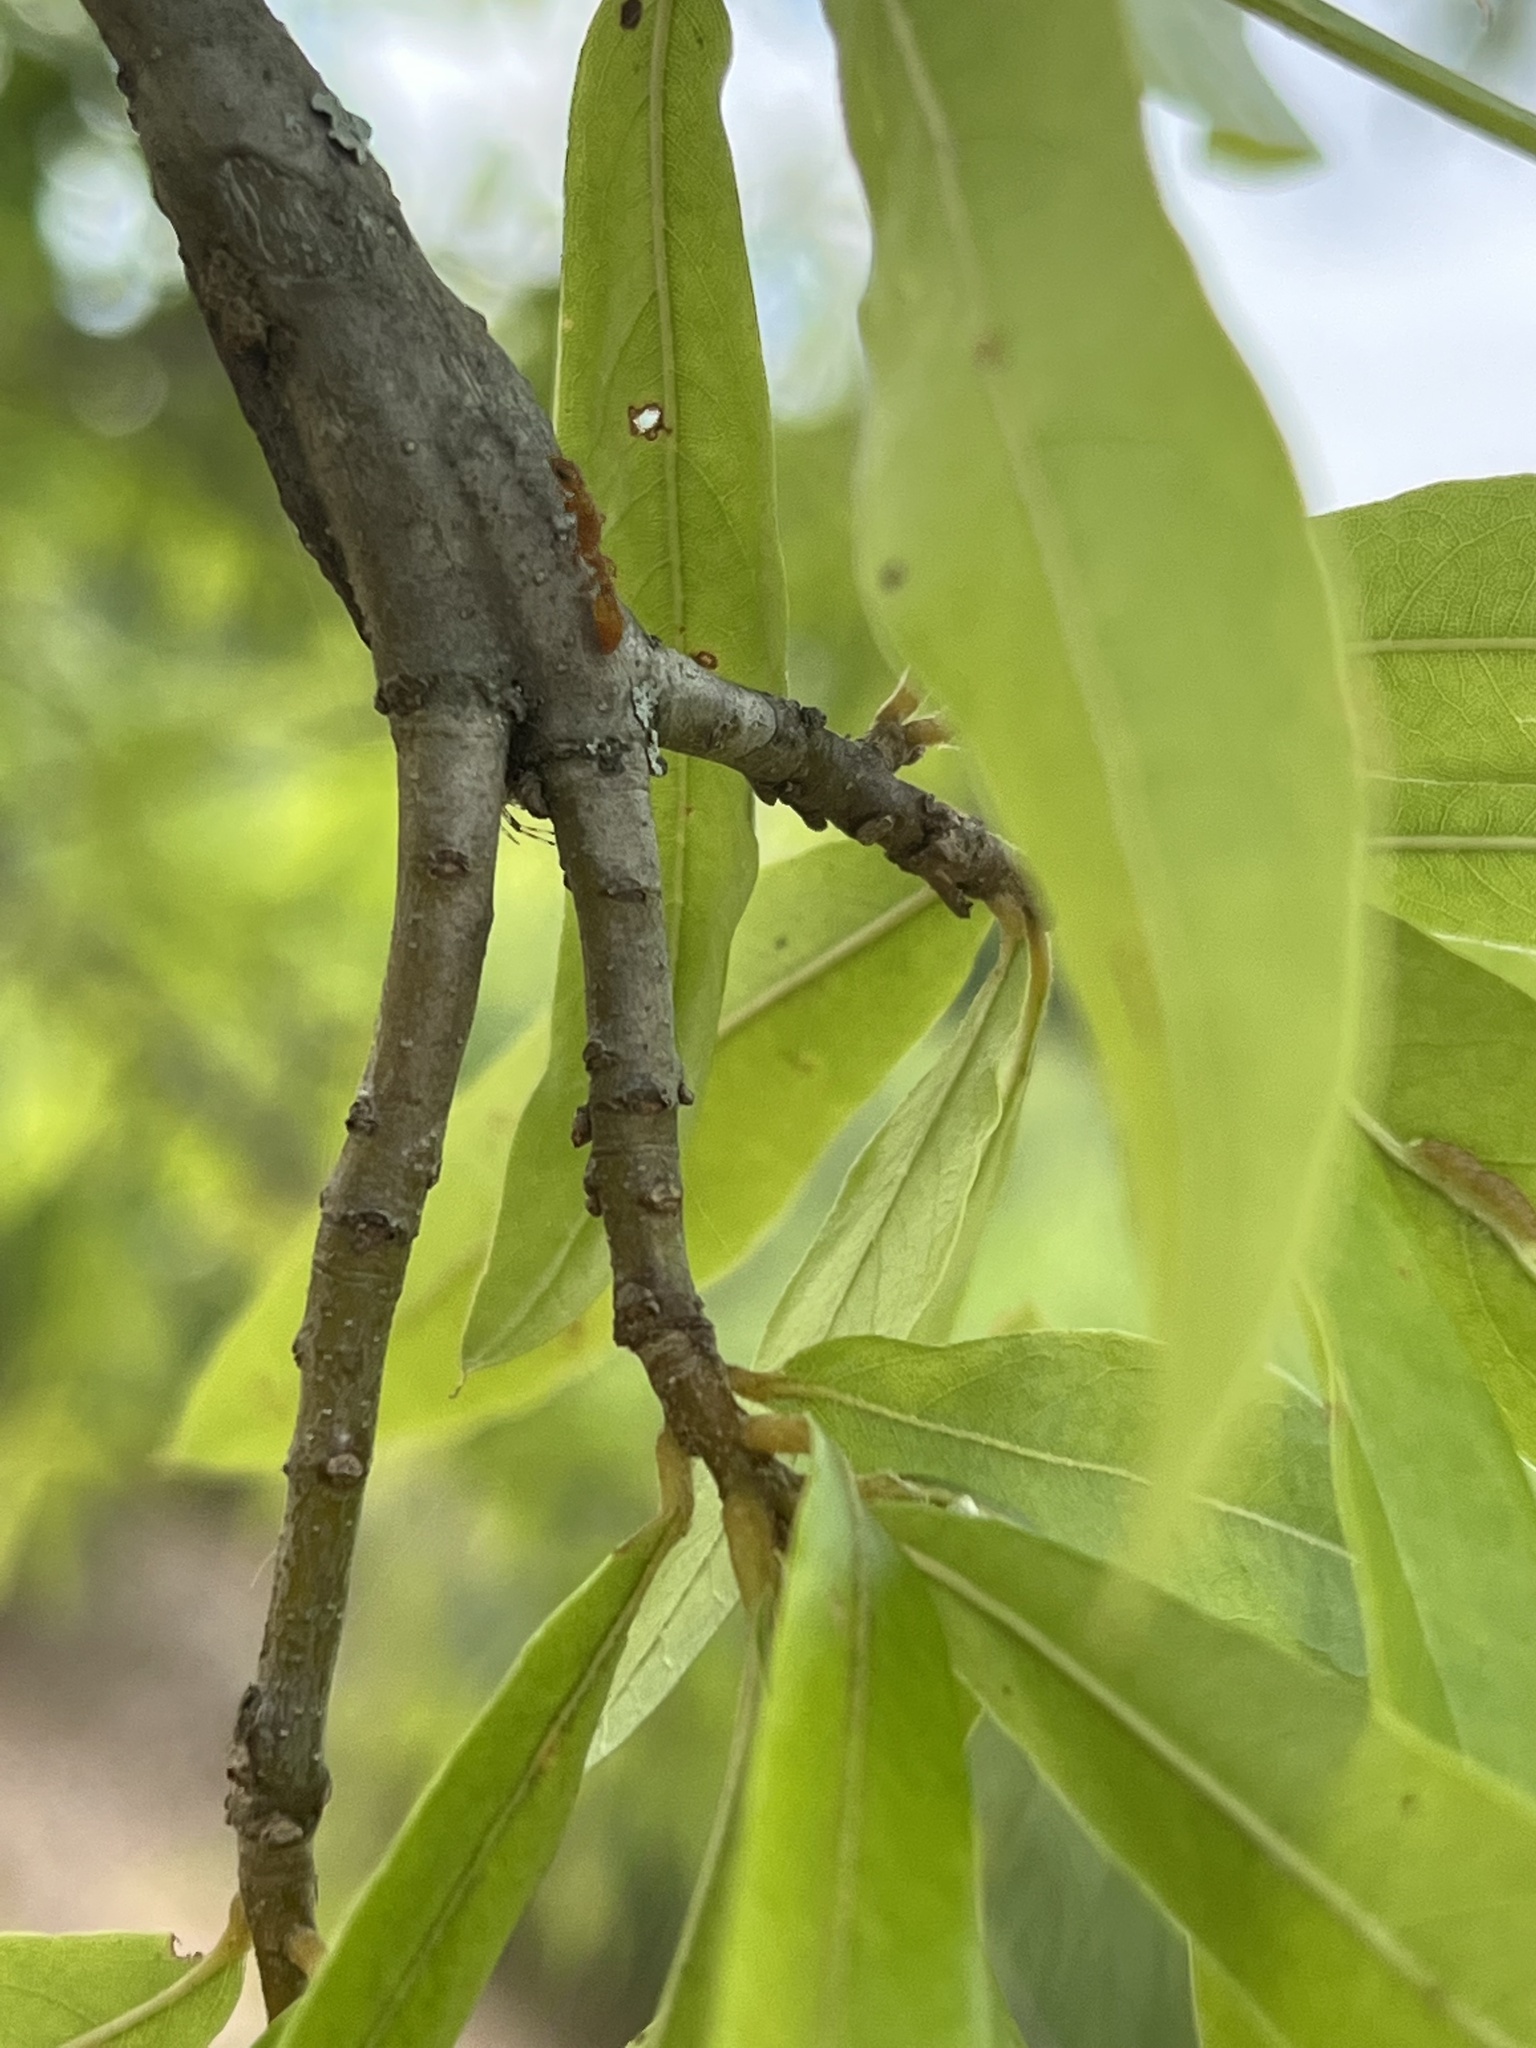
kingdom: Animalia
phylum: Arthropoda
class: Insecta
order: Hymenoptera
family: Formicidae
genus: Pseudomyrmex
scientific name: Pseudomyrmex pallidus
